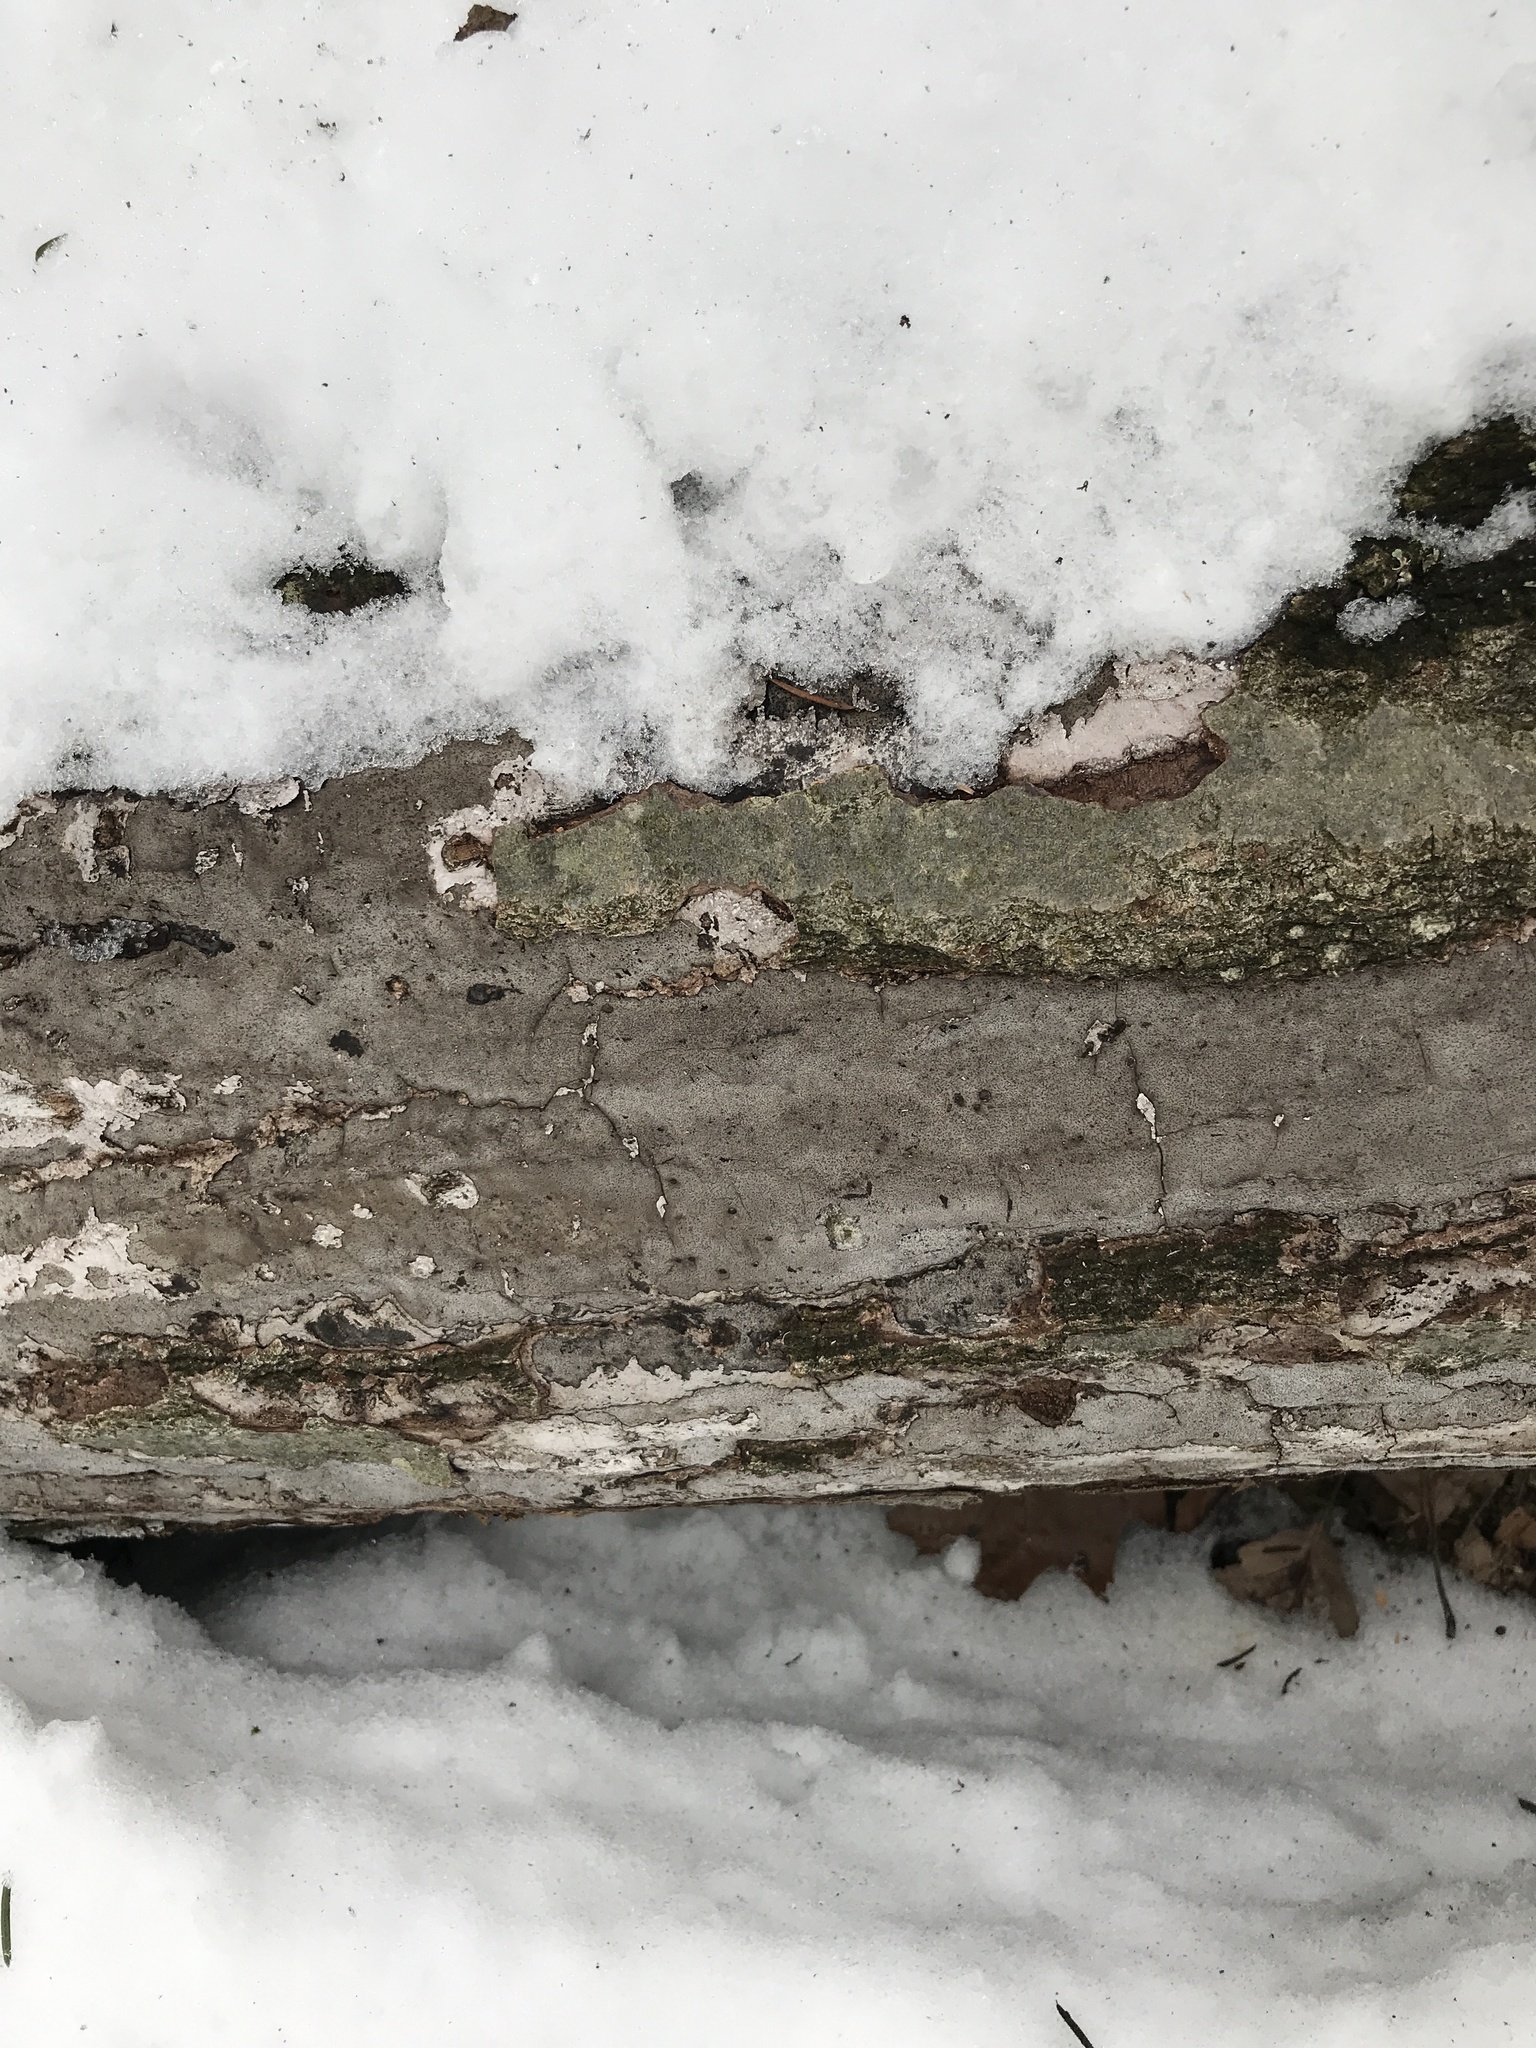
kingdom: Fungi
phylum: Ascomycota
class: Sordariomycetes
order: Xylariales
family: Graphostromataceae
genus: Biscogniauxia
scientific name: Biscogniauxia atropunctata
